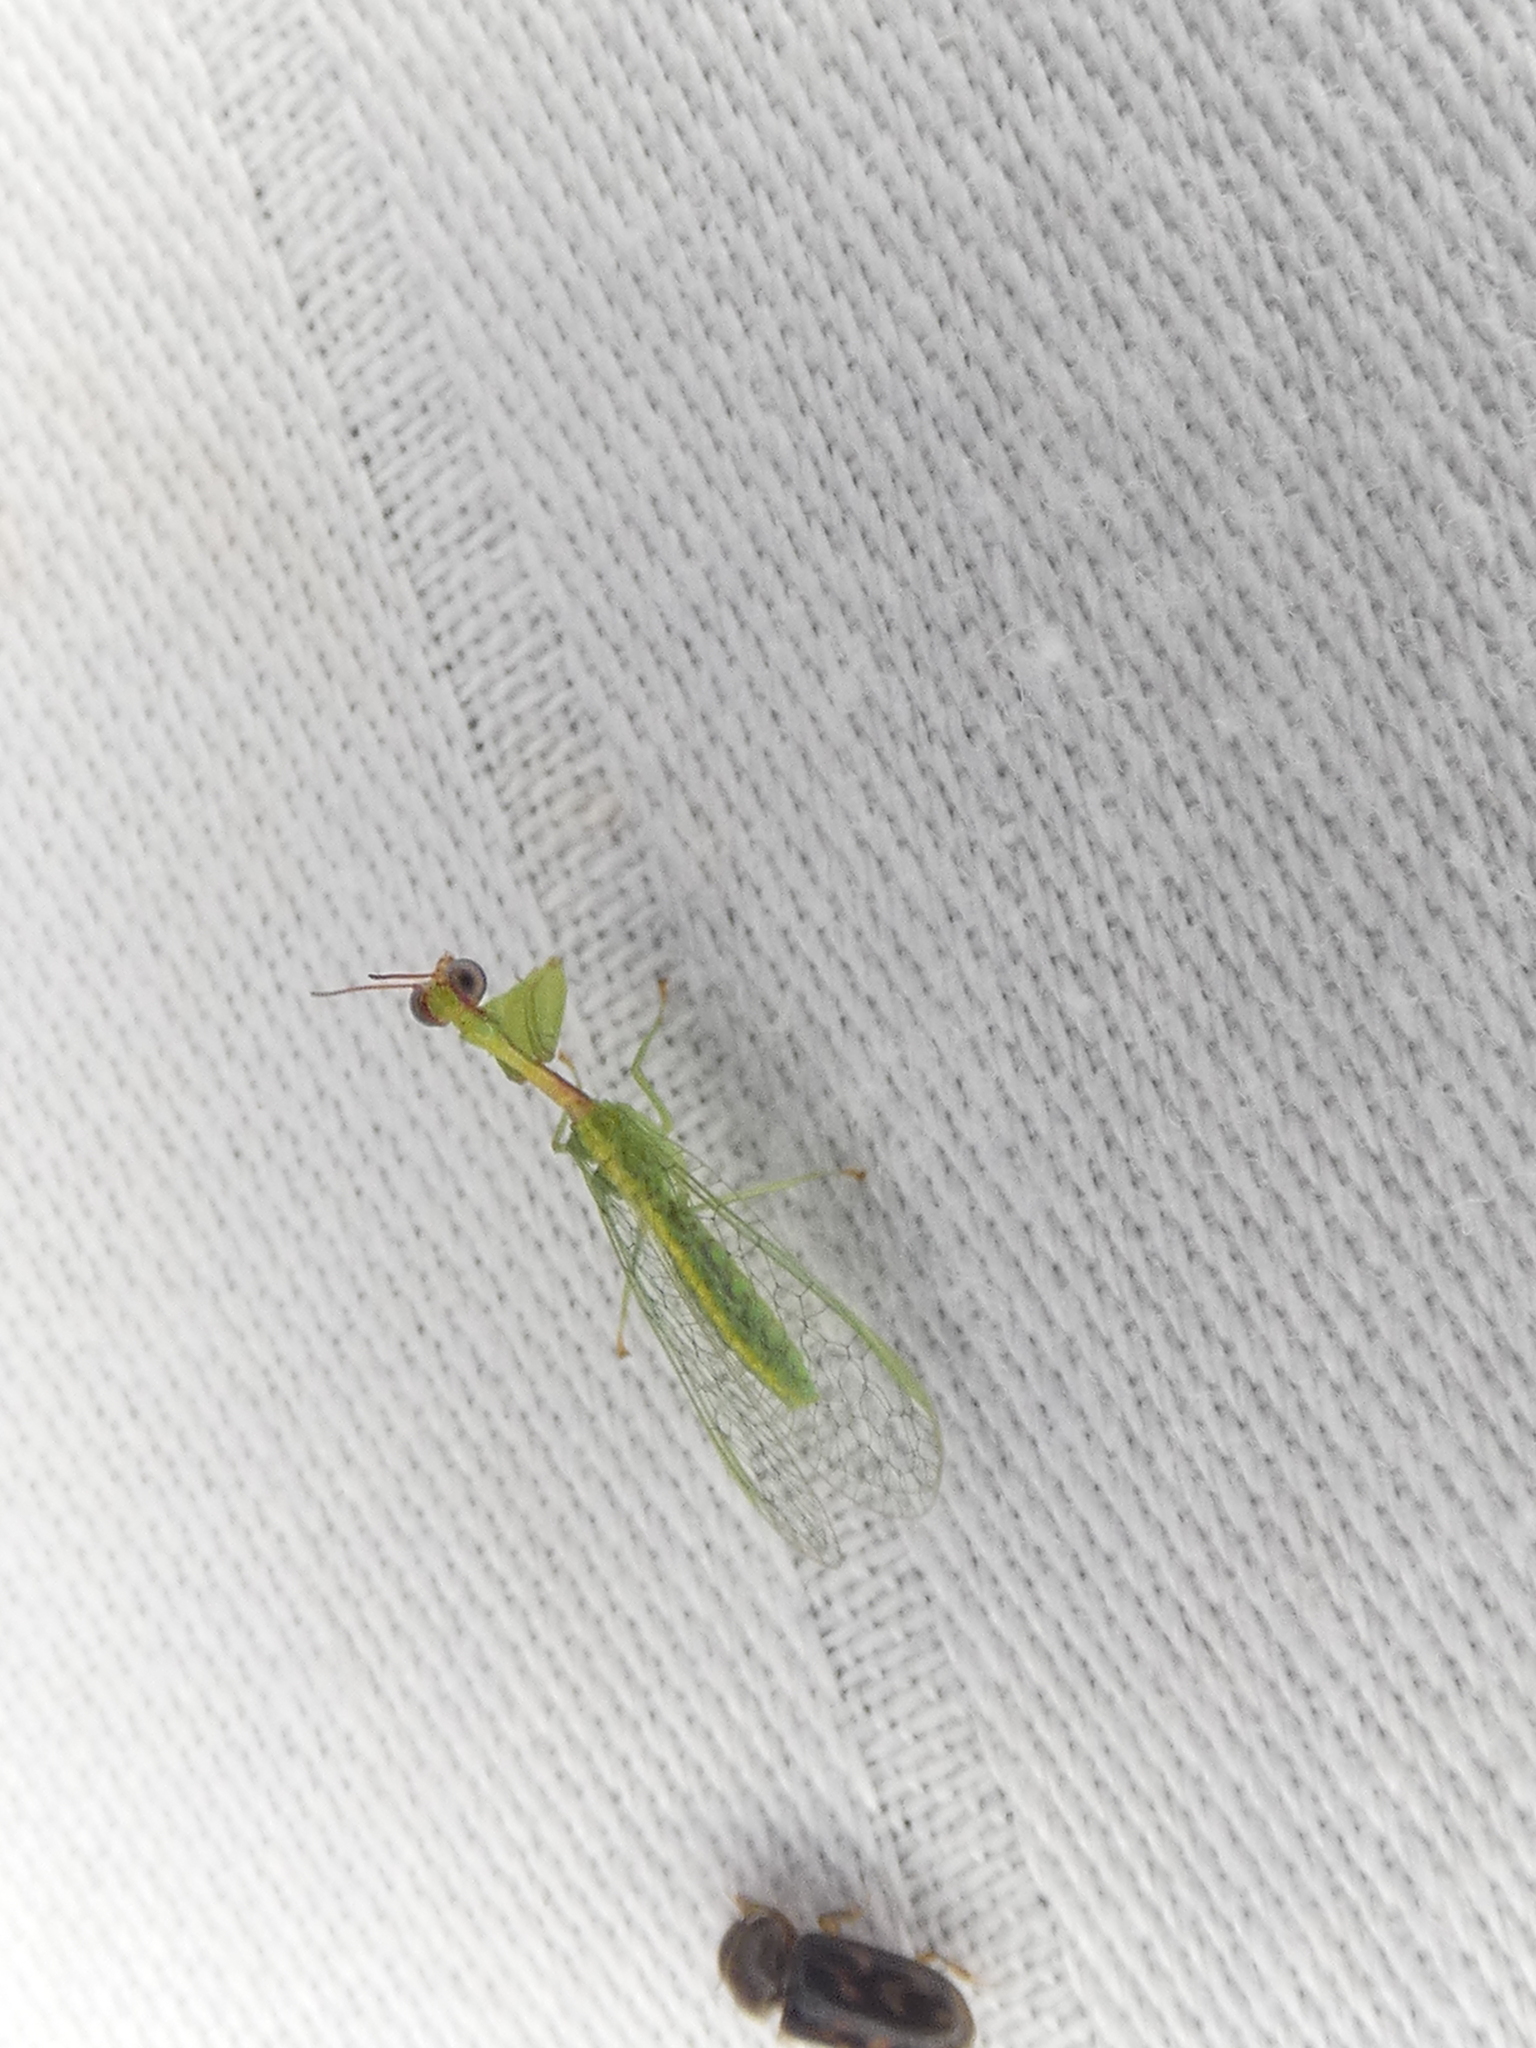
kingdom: Animalia
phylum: Arthropoda
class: Insecta
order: Neuroptera
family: Mantispidae
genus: Zeugomantispa
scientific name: Zeugomantispa minuta
